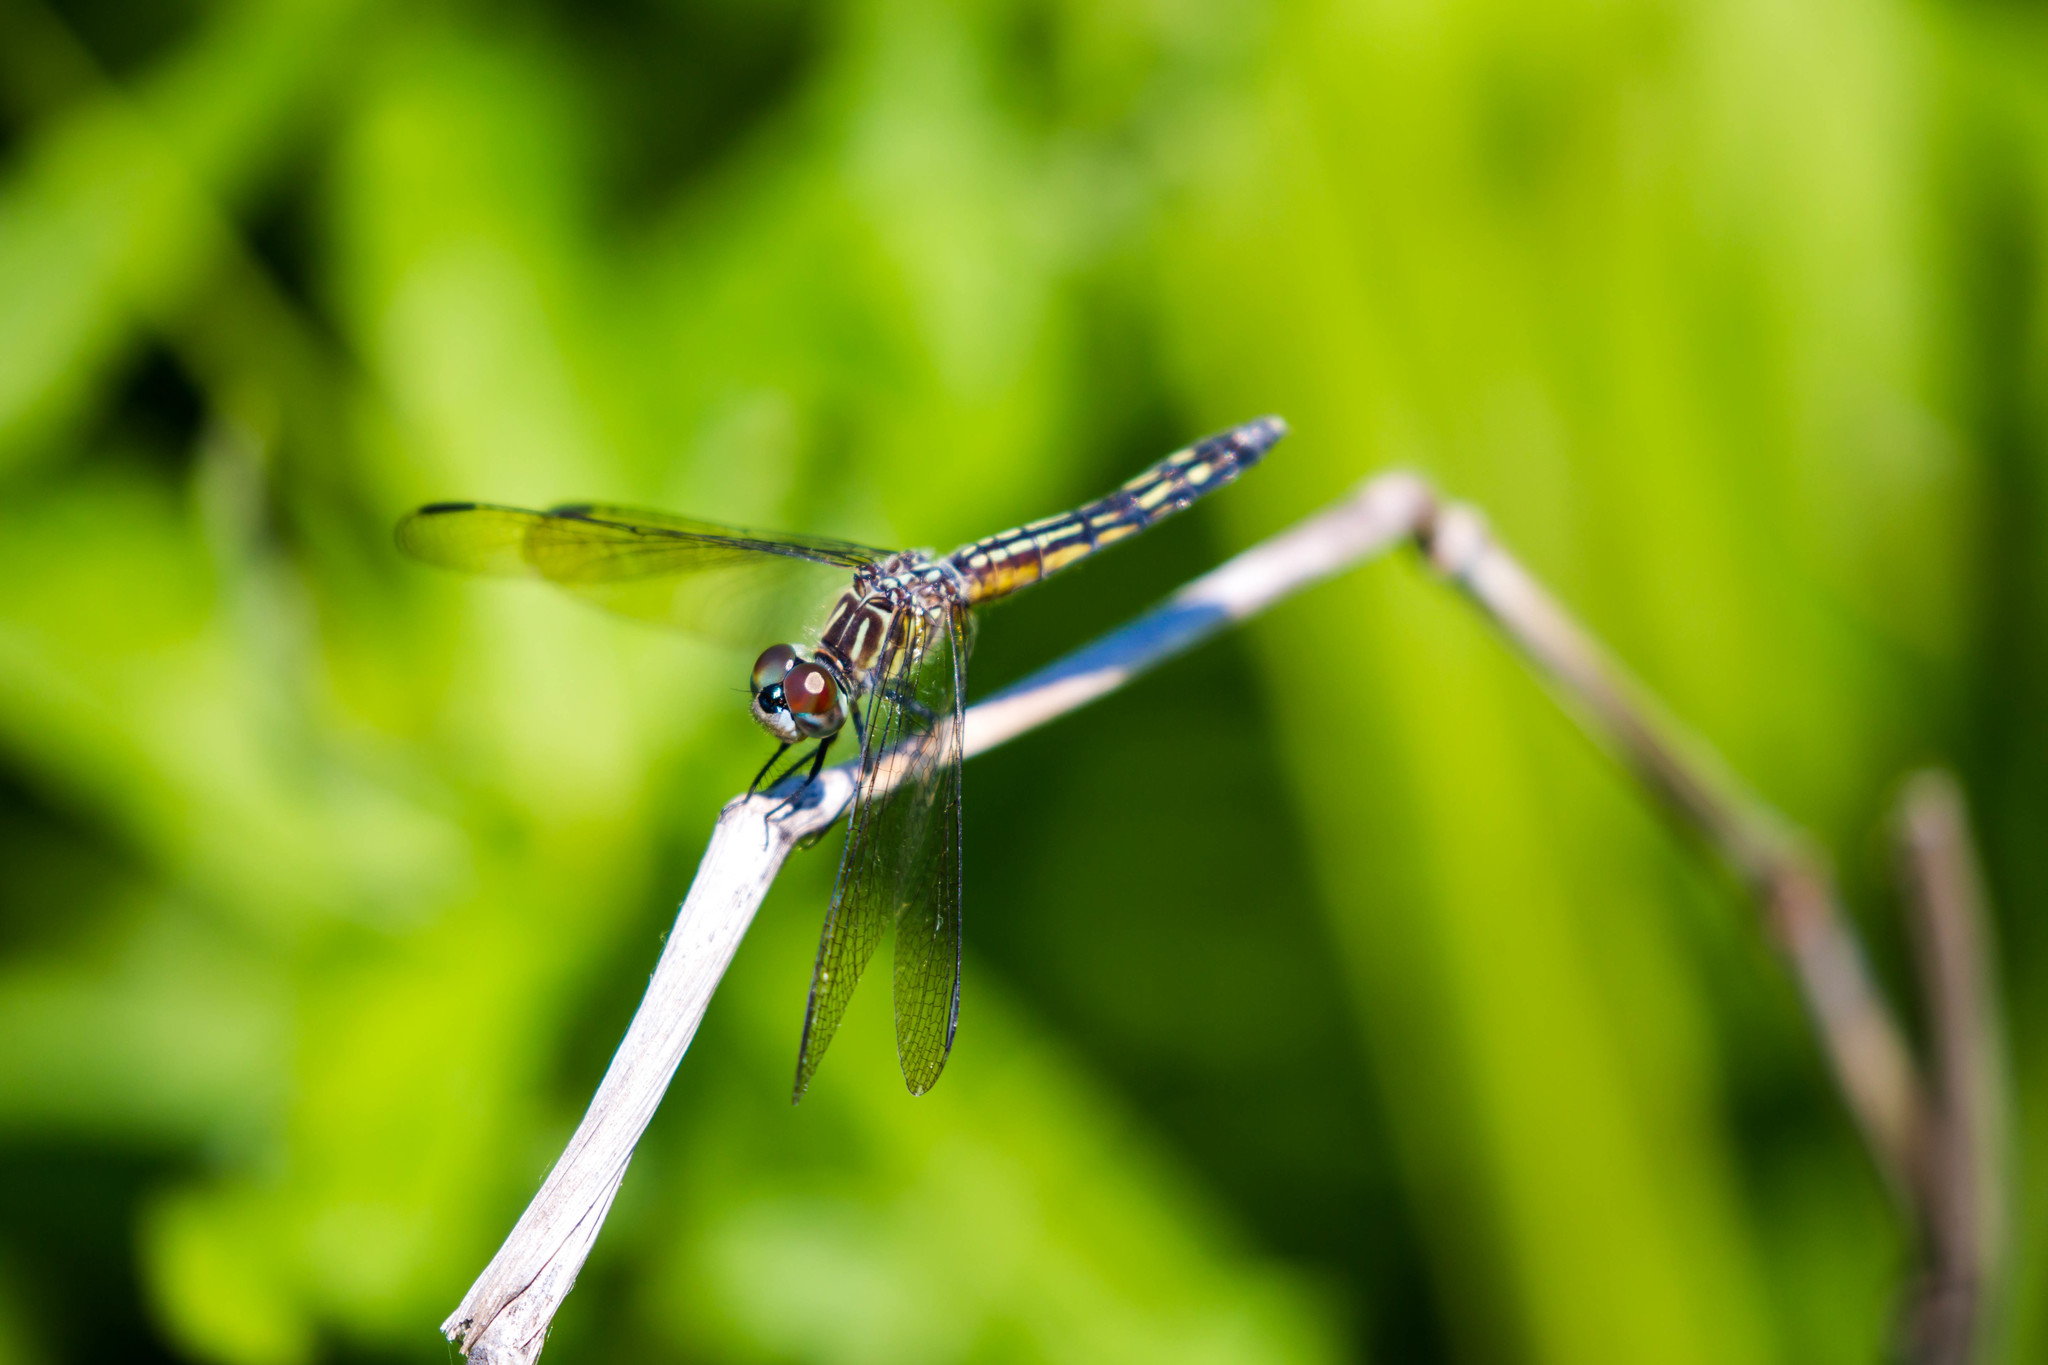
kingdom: Animalia
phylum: Arthropoda
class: Insecta
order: Odonata
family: Libellulidae
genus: Pachydiplax
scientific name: Pachydiplax longipennis
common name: Blue dasher
